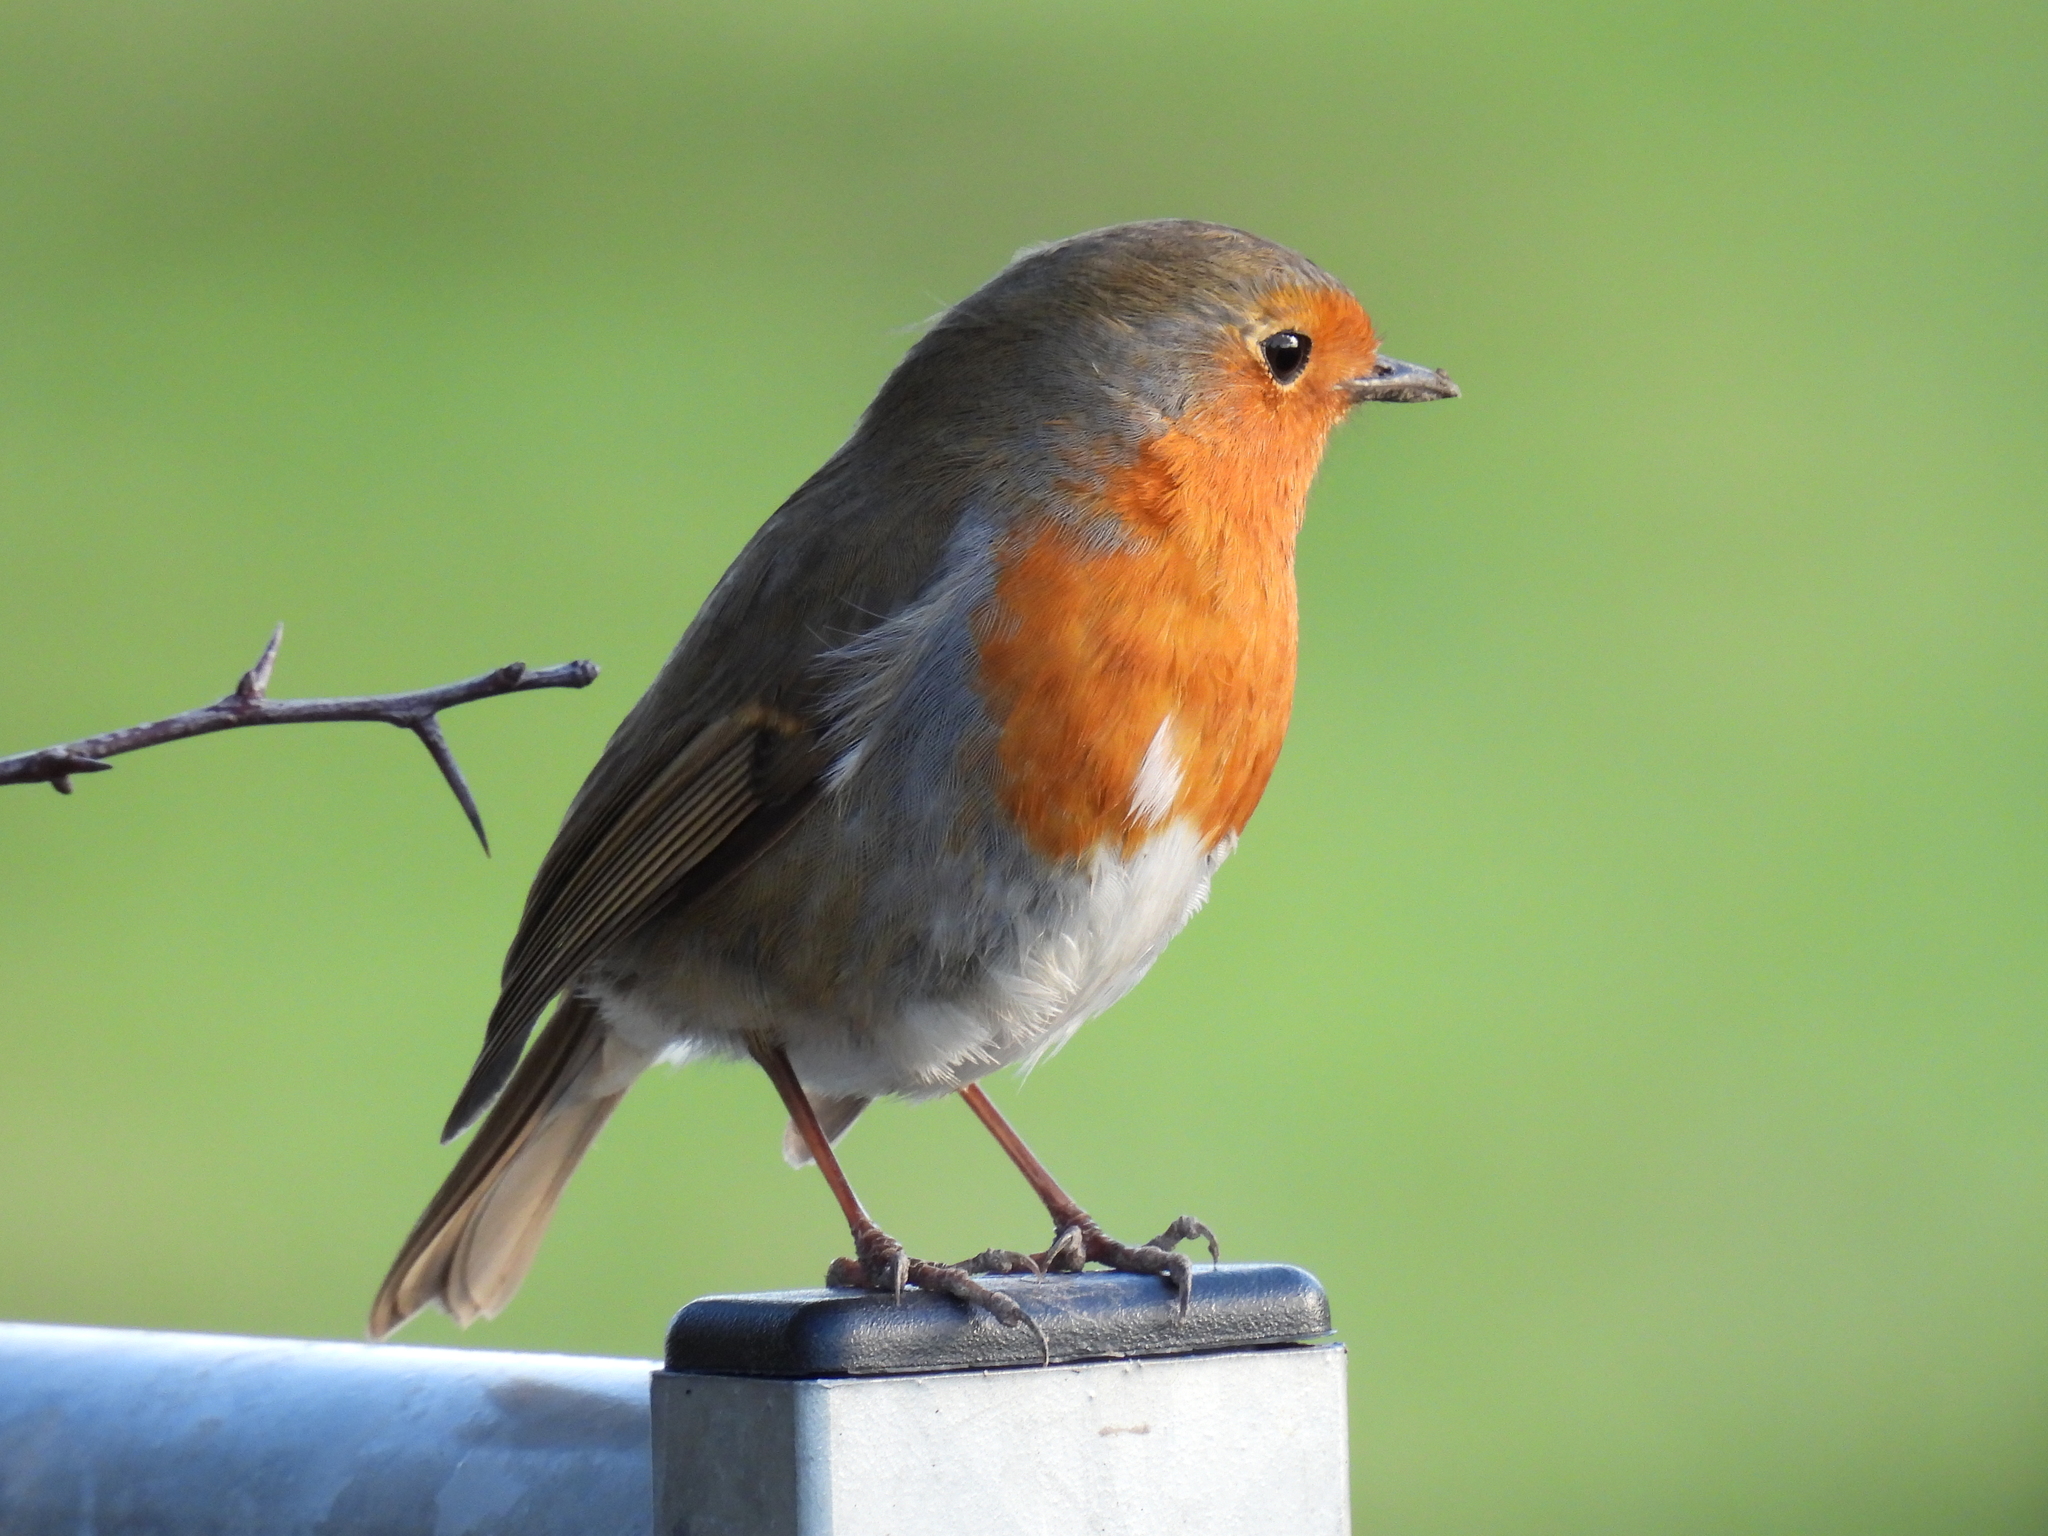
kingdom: Animalia
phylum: Chordata
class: Aves
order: Passeriformes
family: Muscicapidae
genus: Erithacus
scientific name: Erithacus rubecula
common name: European robin
